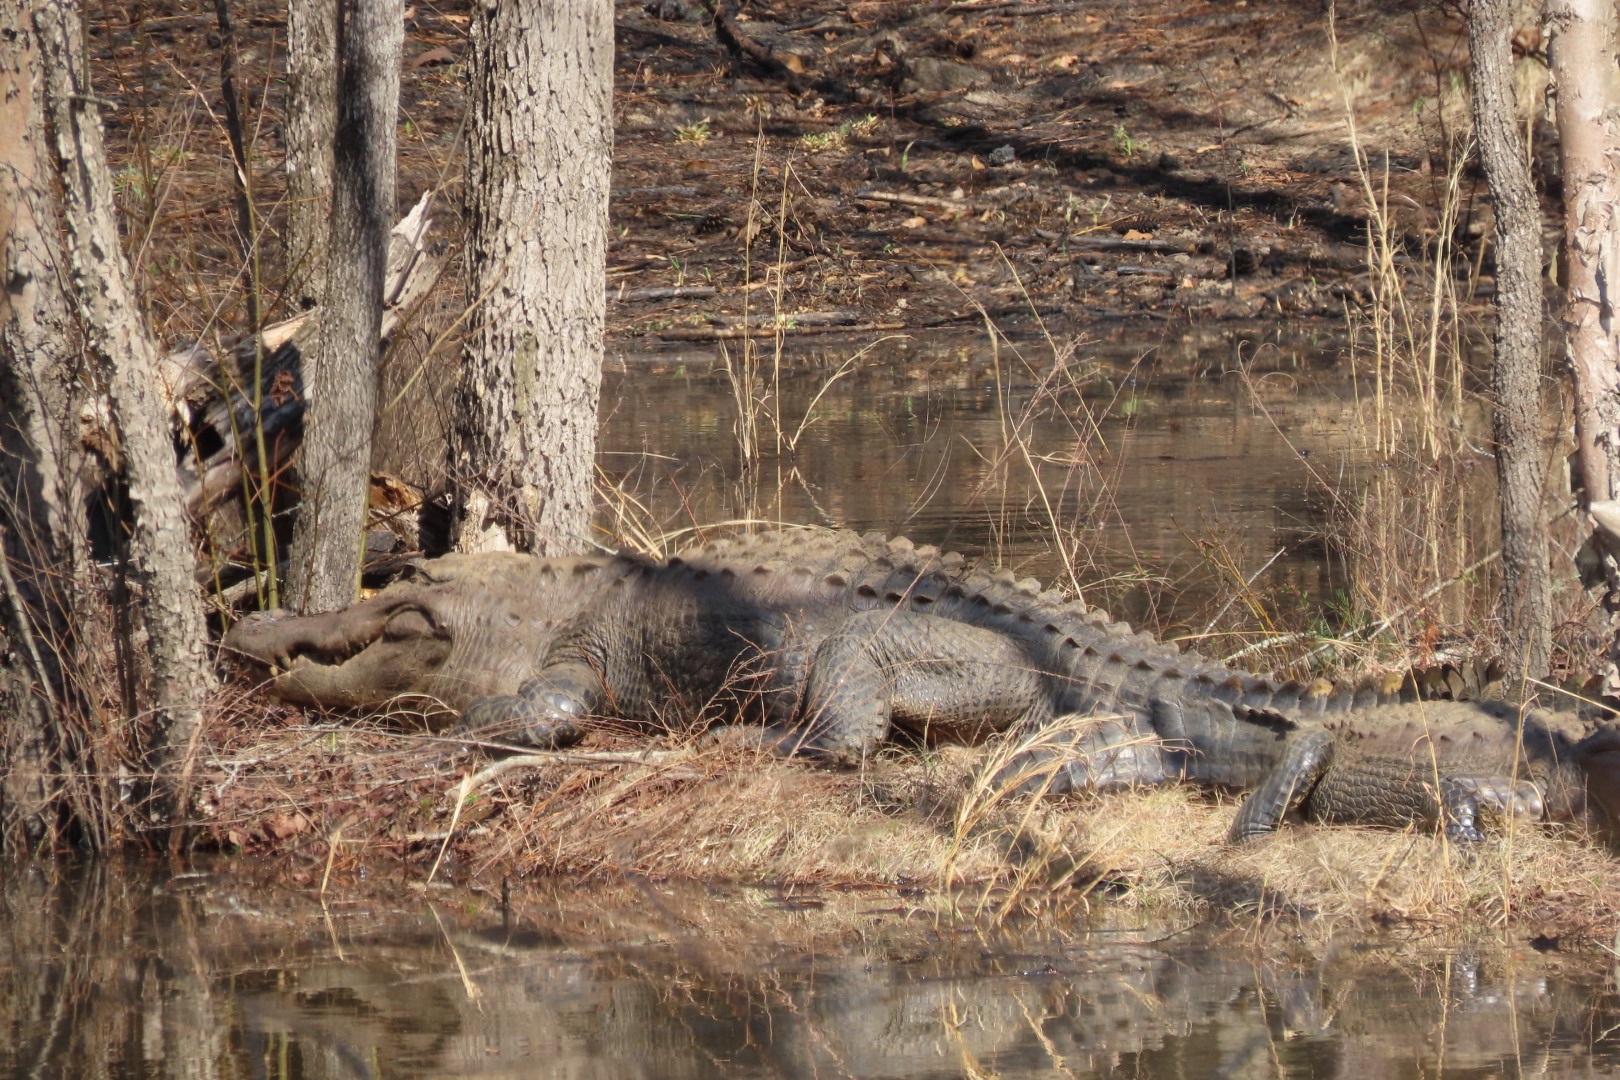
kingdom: Animalia
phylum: Chordata
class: Crocodylia
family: Alligatoridae
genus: Alligator
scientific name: Alligator mississippiensis
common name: American alligator
